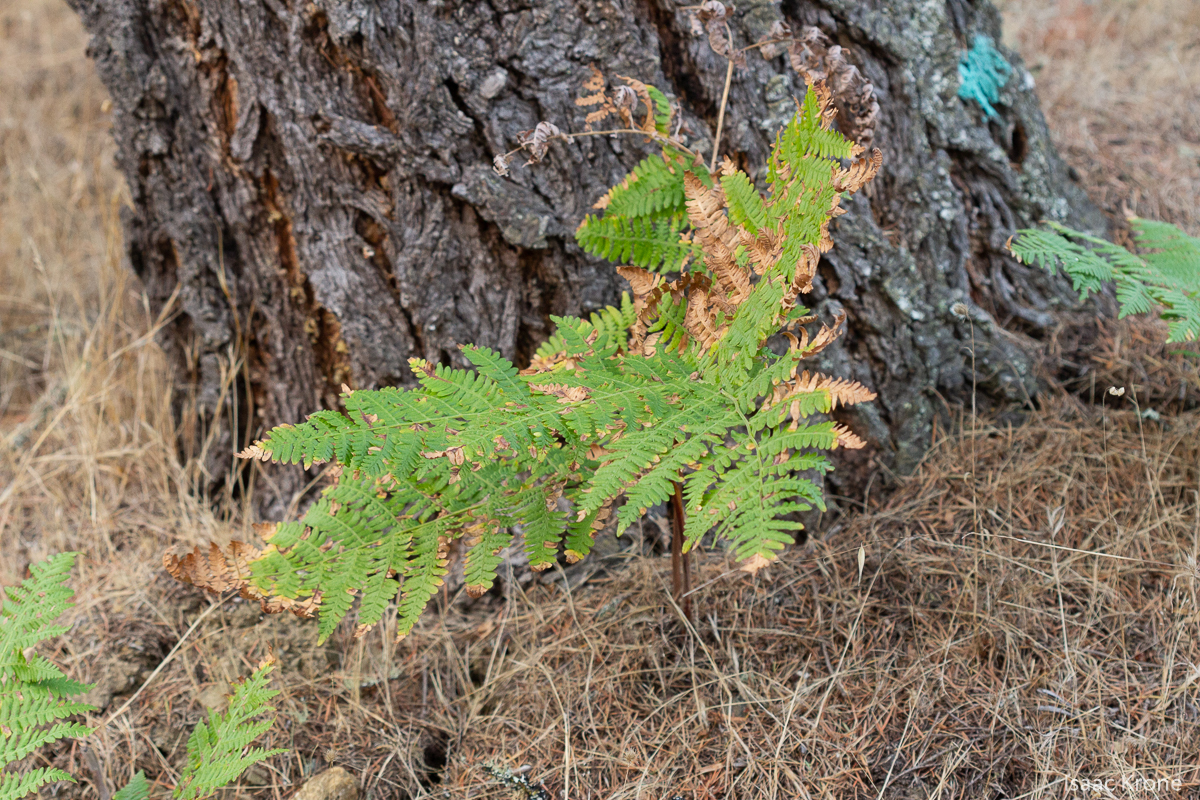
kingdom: Plantae
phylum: Tracheophyta
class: Polypodiopsida
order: Polypodiales
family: Dennstaedtiaceae
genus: Pteridium
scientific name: Pteridium aquilinum
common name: Bracken
